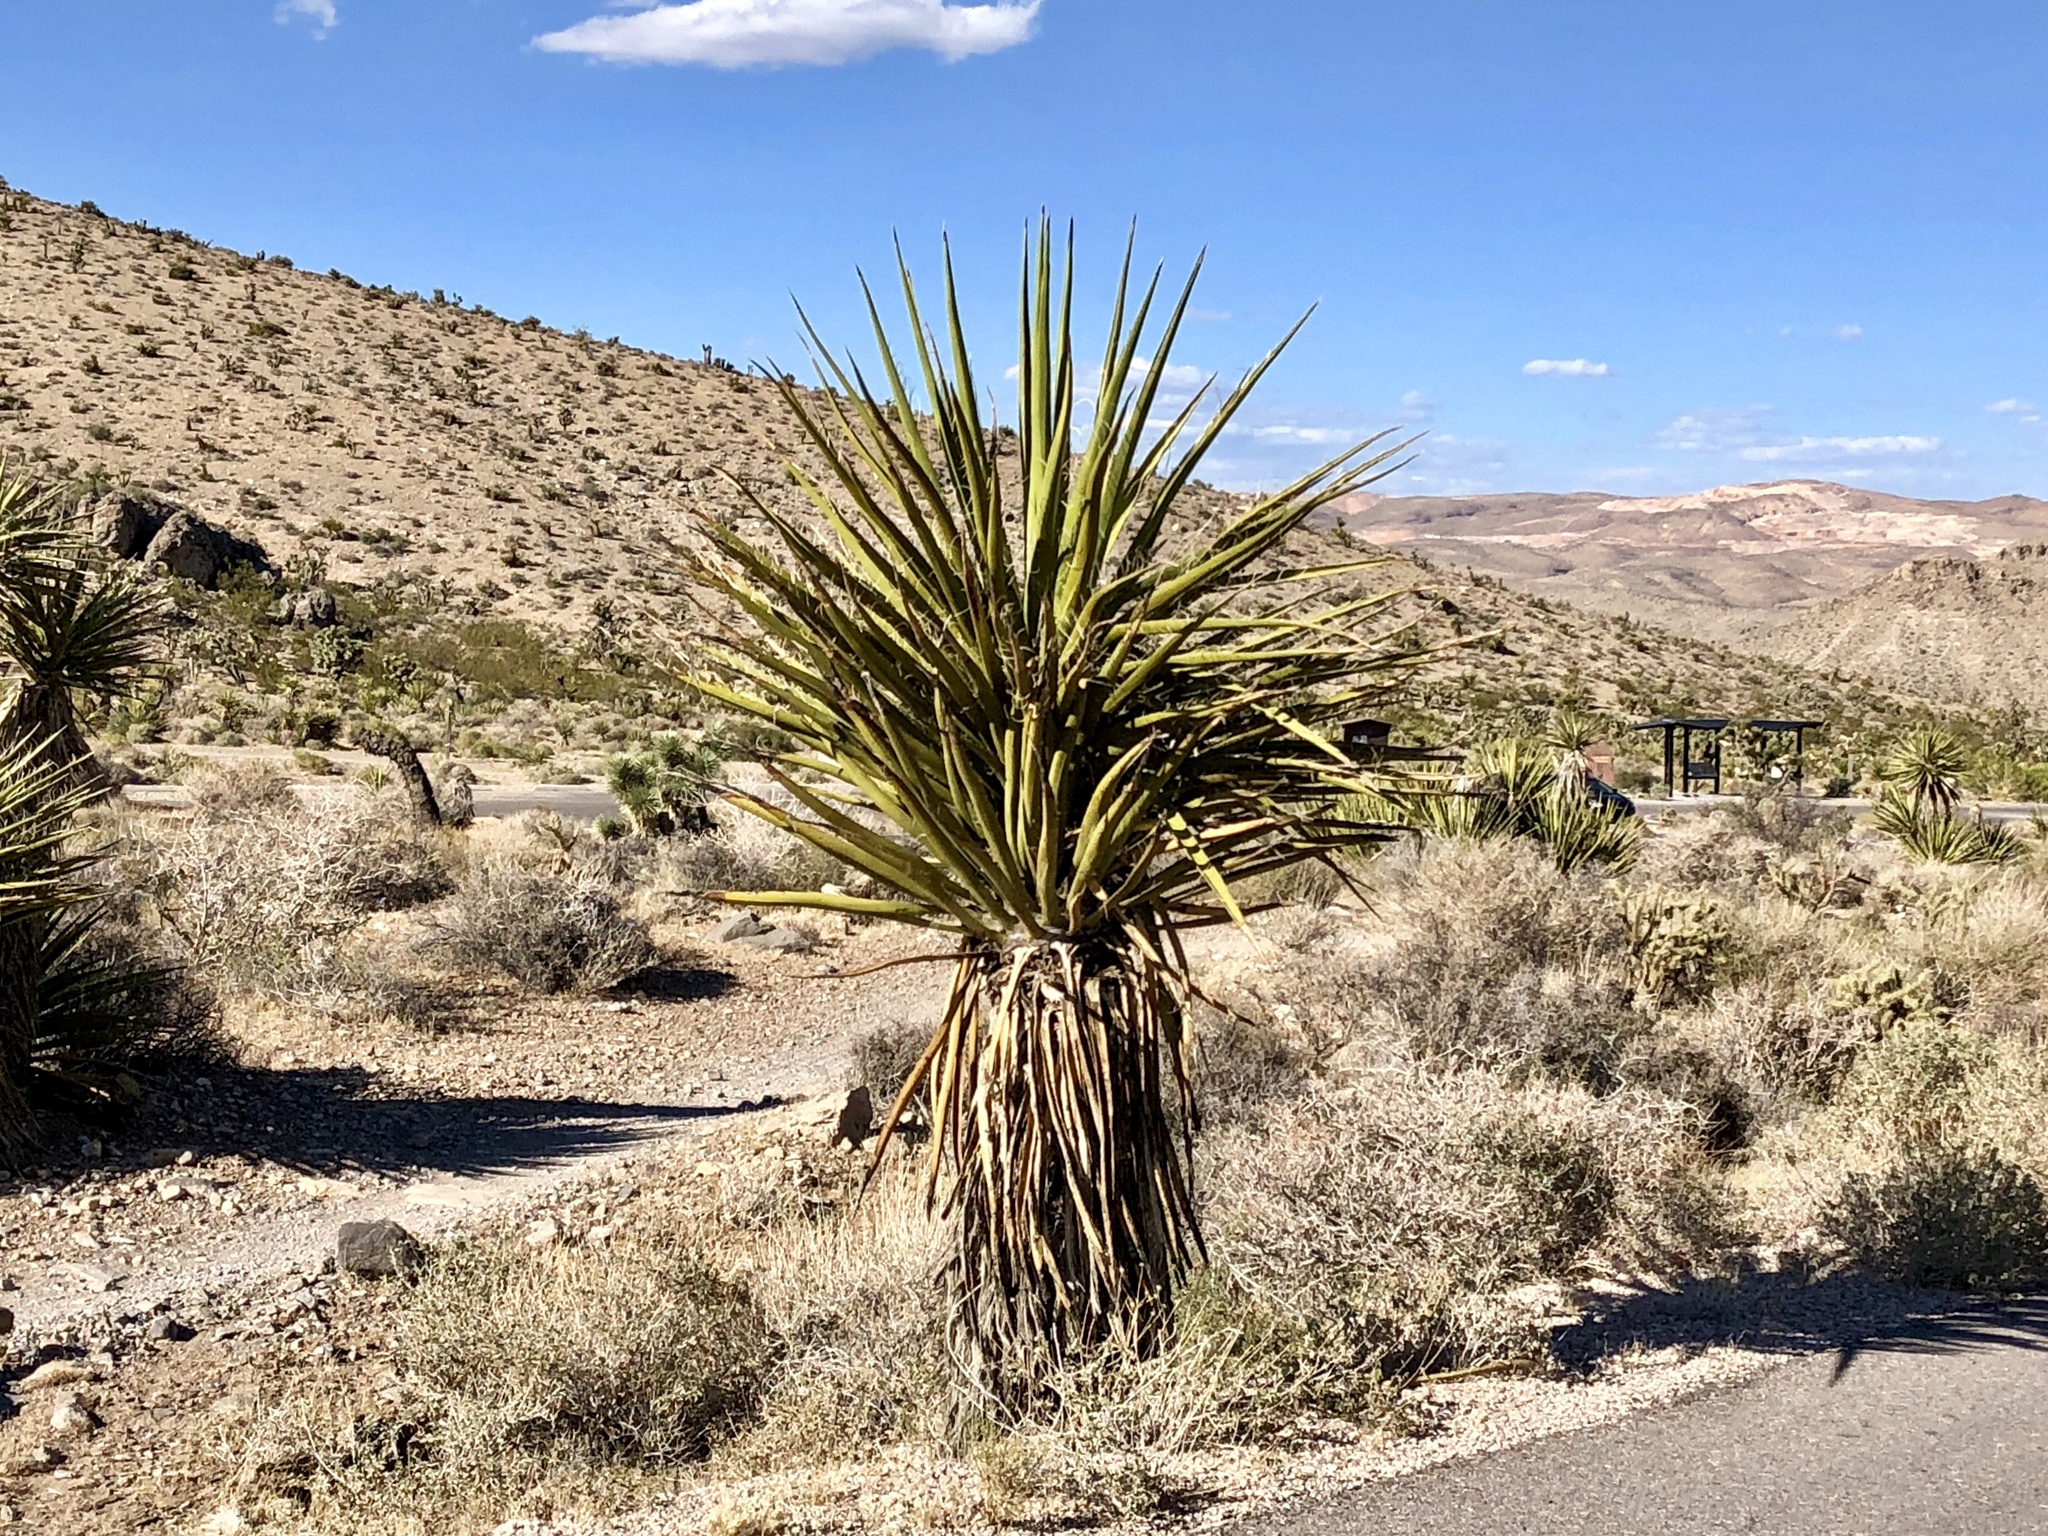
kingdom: Plantae
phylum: Tracheophyta
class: Liliopsida
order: Asparagales
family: Asparagaceae
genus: Yucca
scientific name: Yucca schidigera
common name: Mojave yucca
